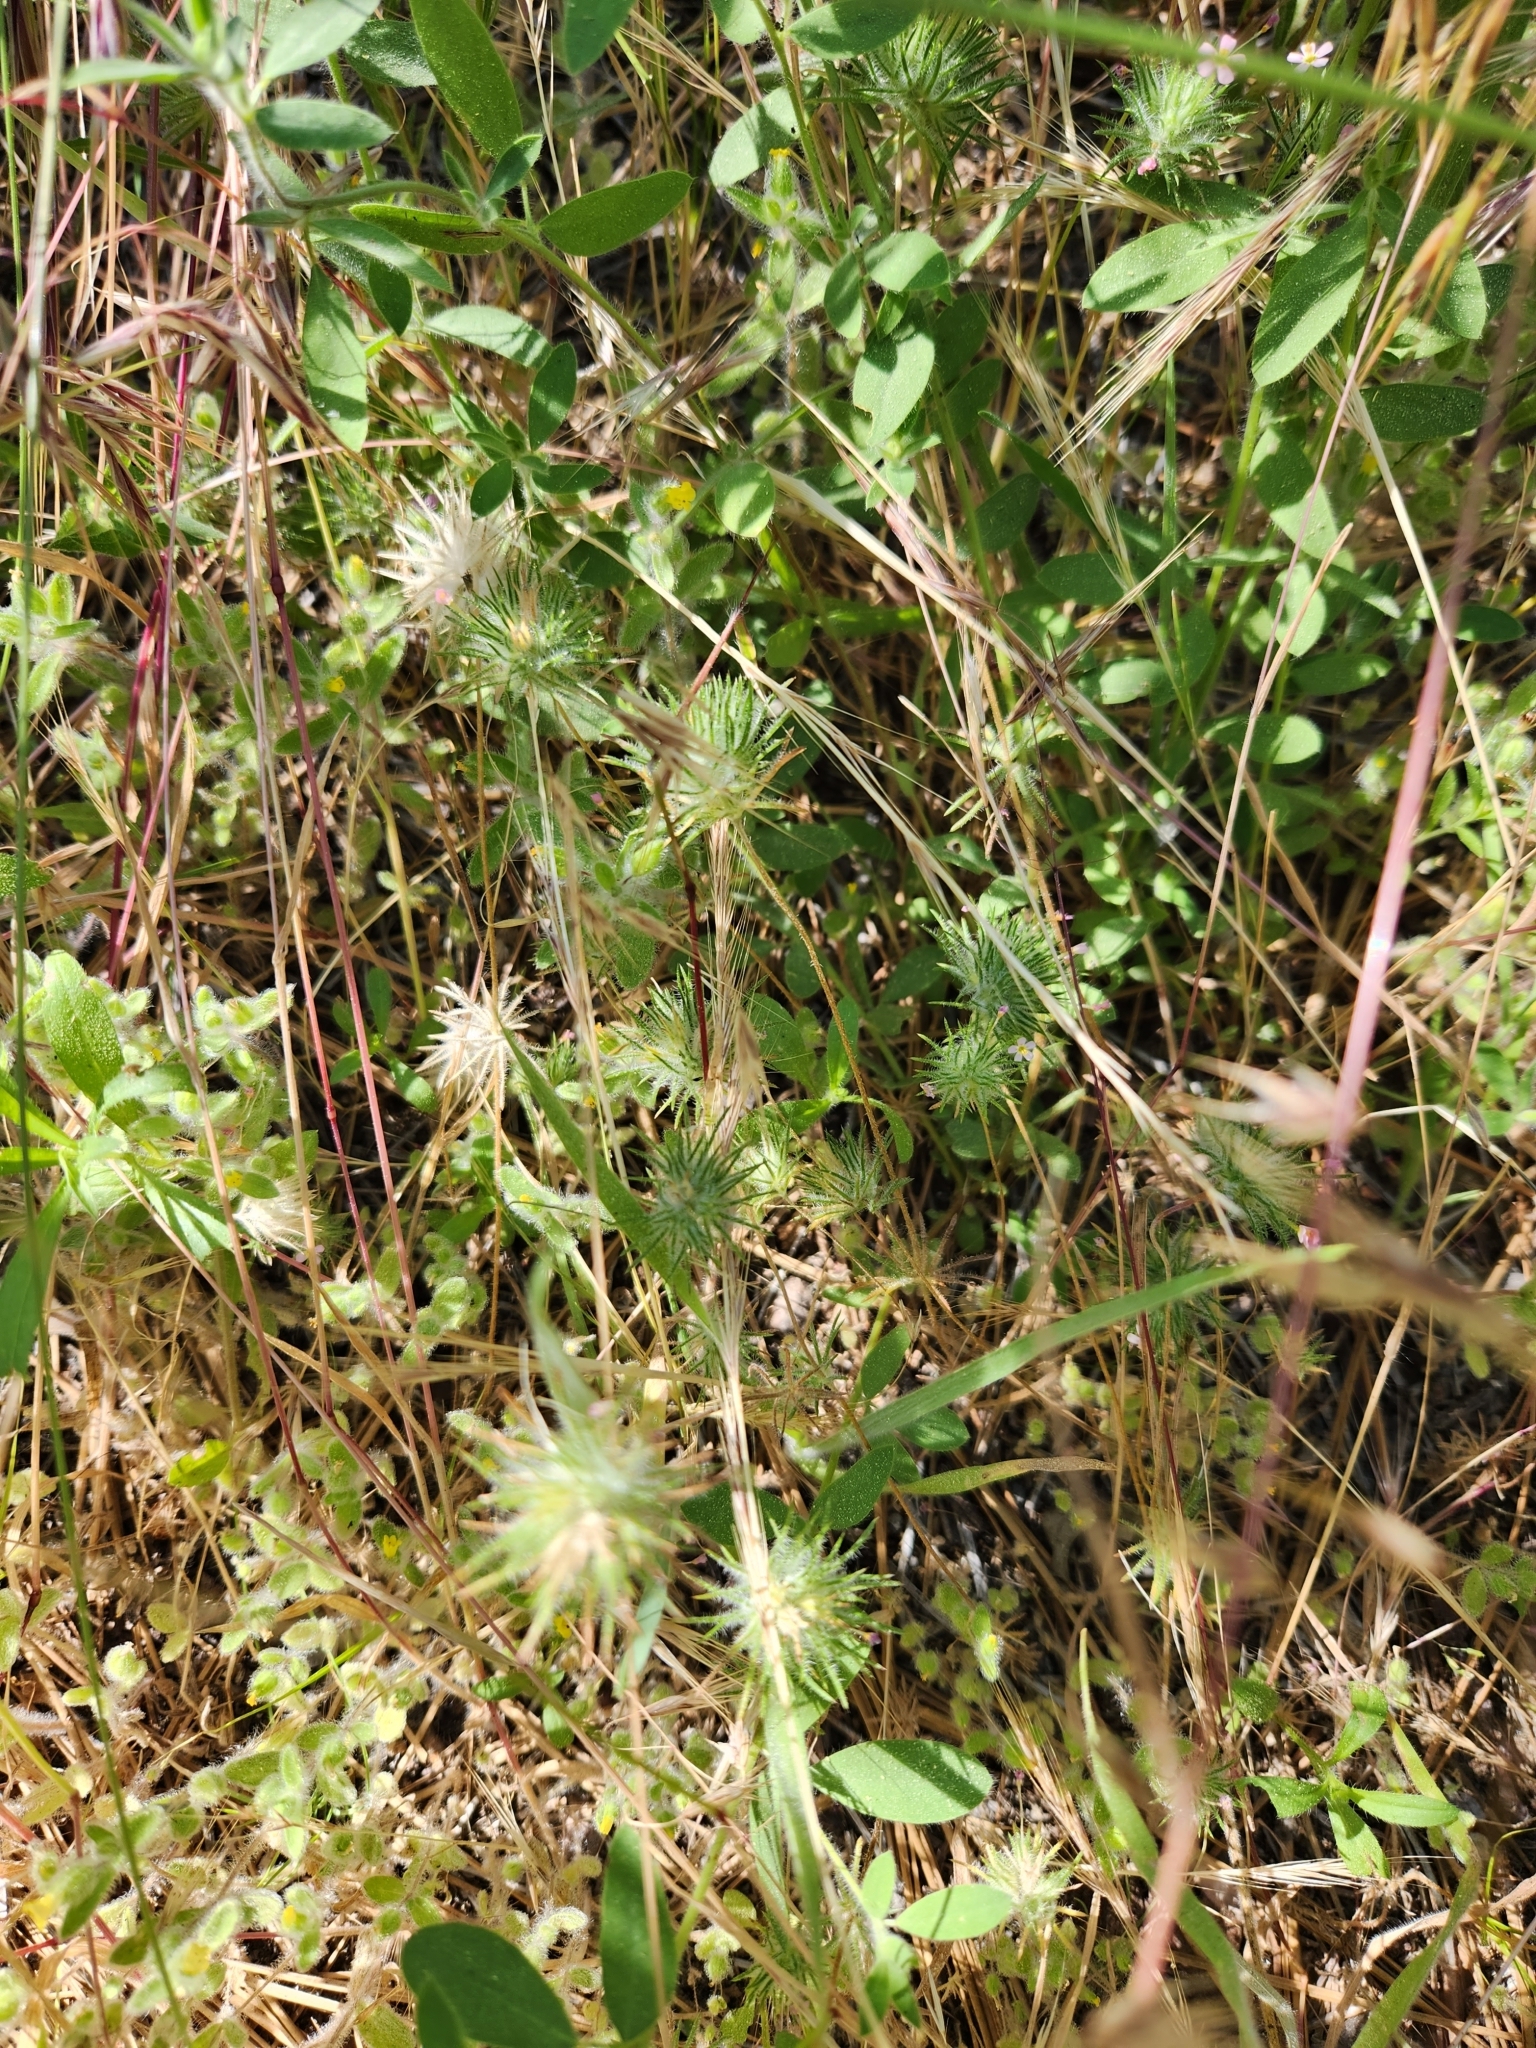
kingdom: Plantae
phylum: Tracheophyta
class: Magnoliopsida
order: Ericales
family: Polemoniaceae
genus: Leptosiphon
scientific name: Leptosiphon ciliatus
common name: Whiskerbrush
